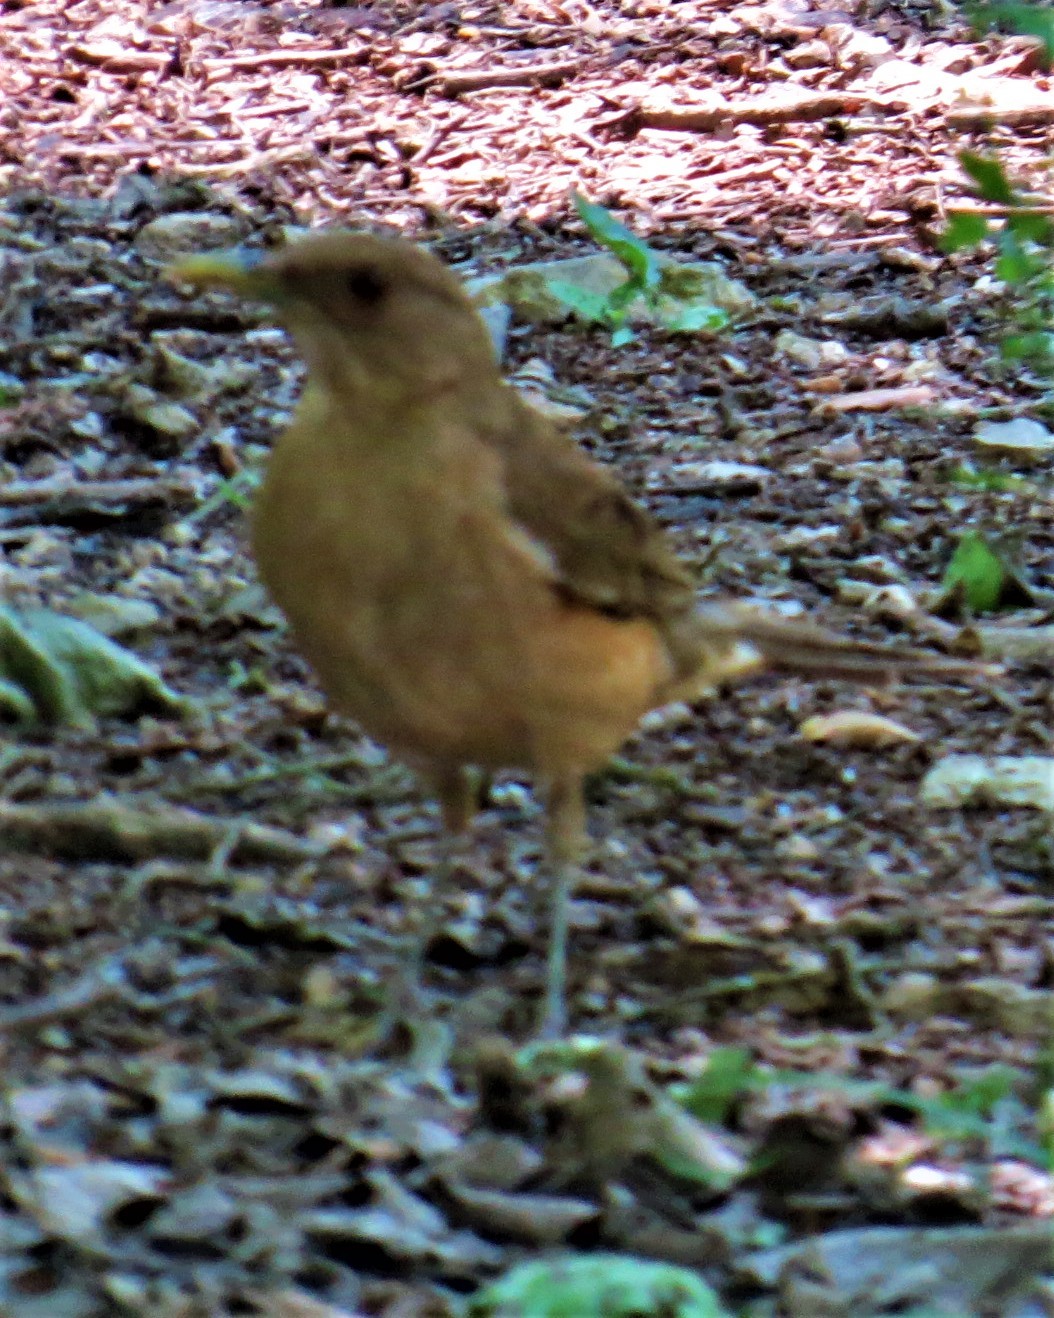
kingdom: Animalia
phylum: Chordata
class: Aves
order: Passeriformes
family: Turdidae
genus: Turdus
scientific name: Turdus grayi
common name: Clay-colored thrush
